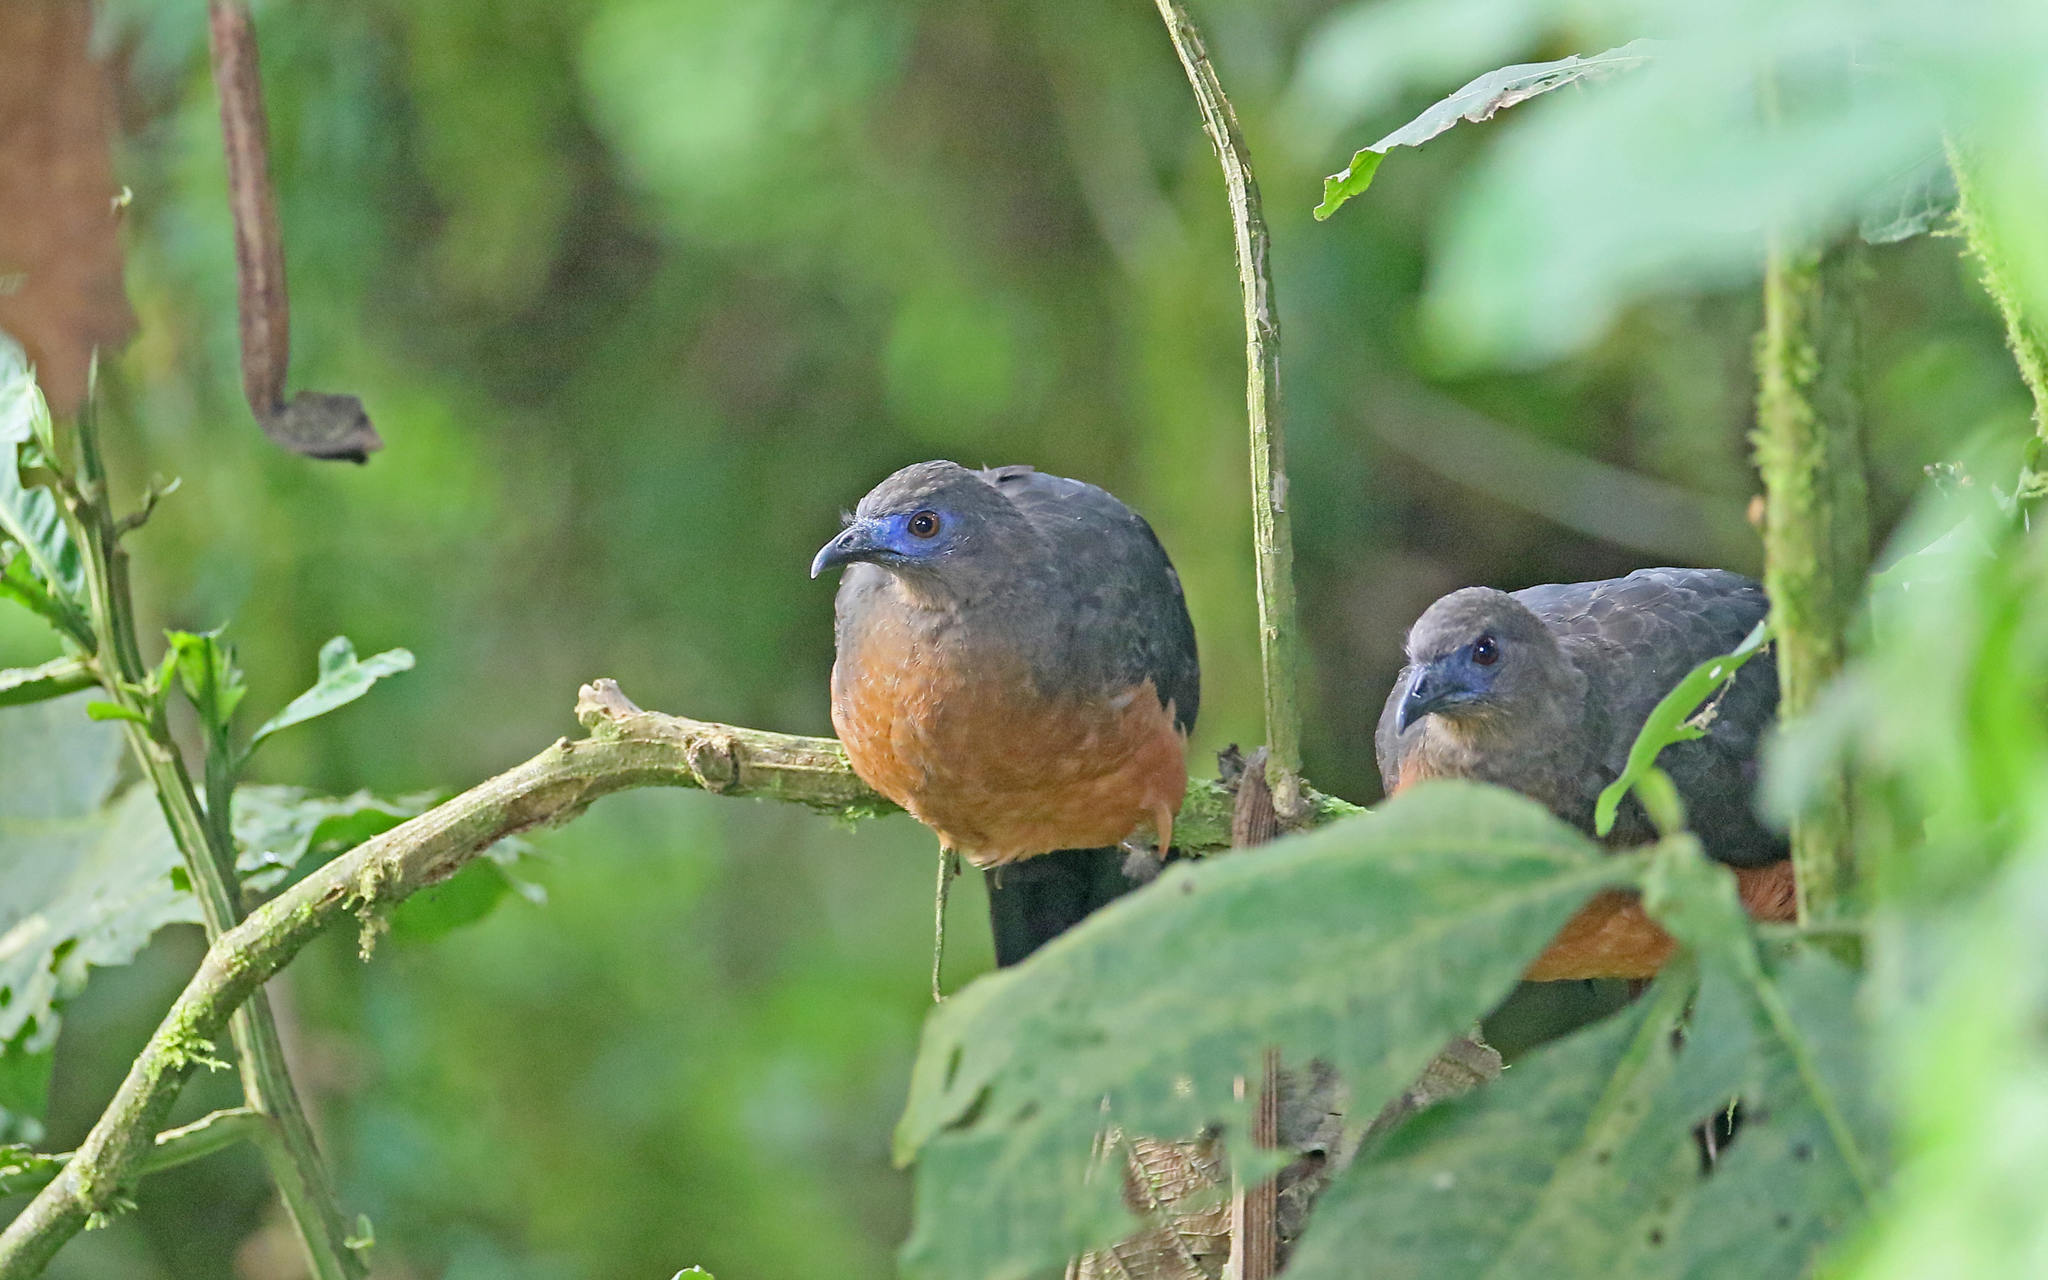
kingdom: Animalia
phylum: Chordata
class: Aves
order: Galliformes
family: Cracidae
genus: Chamaepetes
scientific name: Chamaepetes goudotii
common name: Sickle-winged guan
